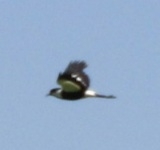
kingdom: Animalia
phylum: Chordata
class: Aves
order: Charadriiformes
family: Charadriidae
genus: Vanellus
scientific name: Vanellus spinosus
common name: Spur-winged lapwing
